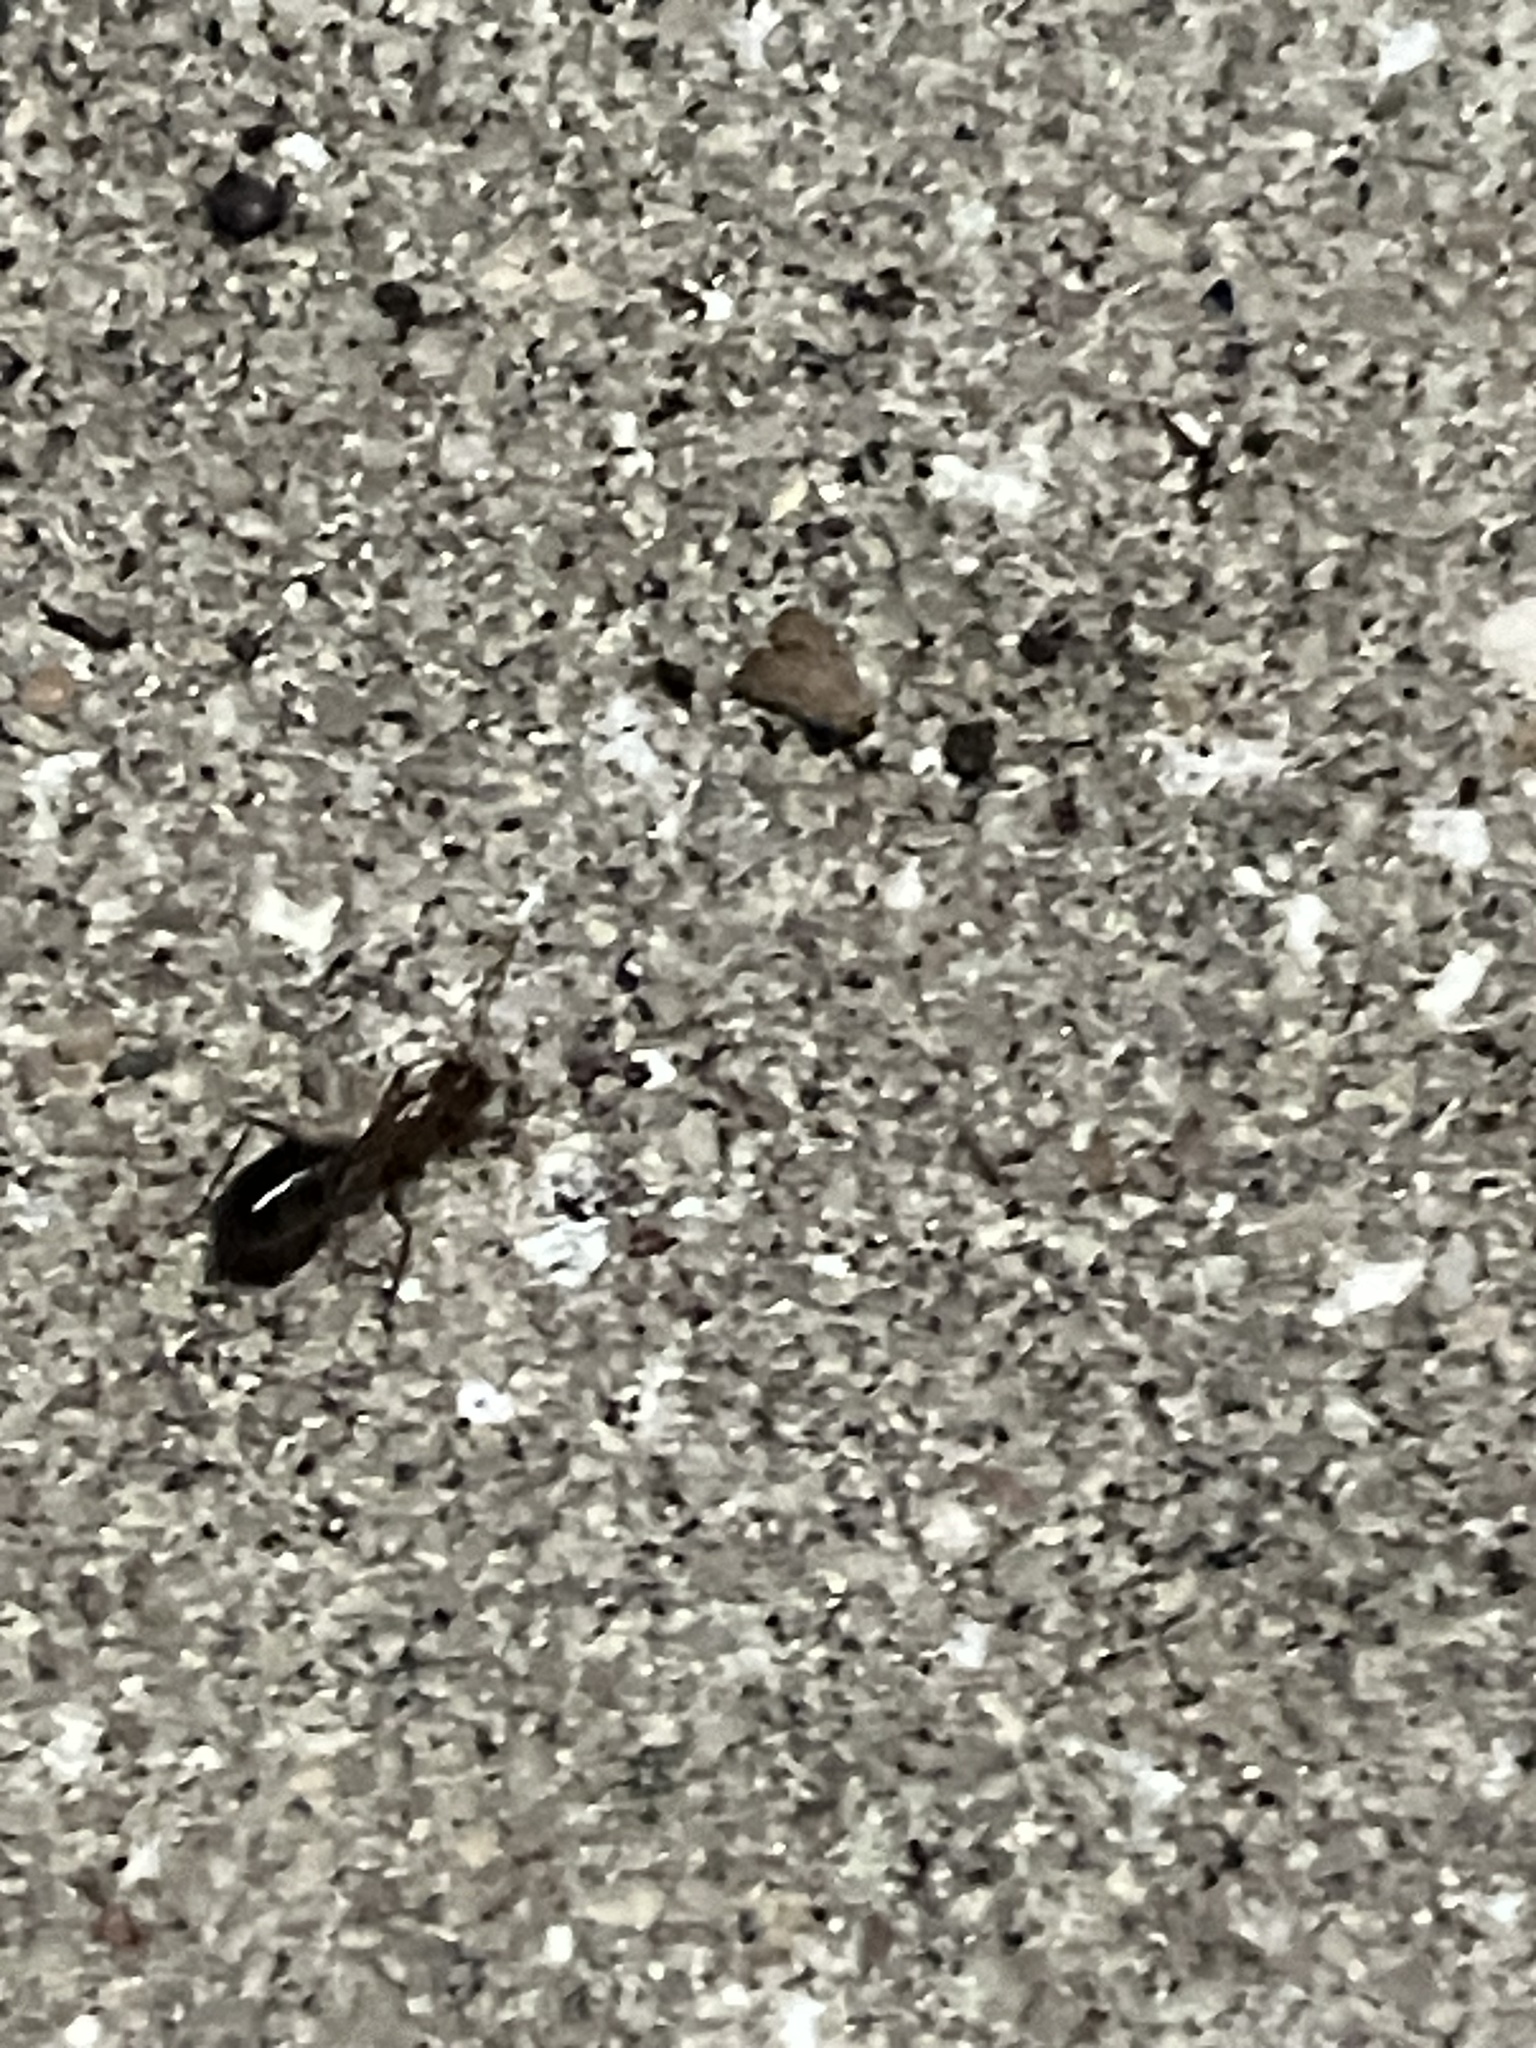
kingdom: Animalia
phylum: Arthropoda
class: Insecta
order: Hymenoptera
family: Formicidae
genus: Camponotus
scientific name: Camponotus floridanus
